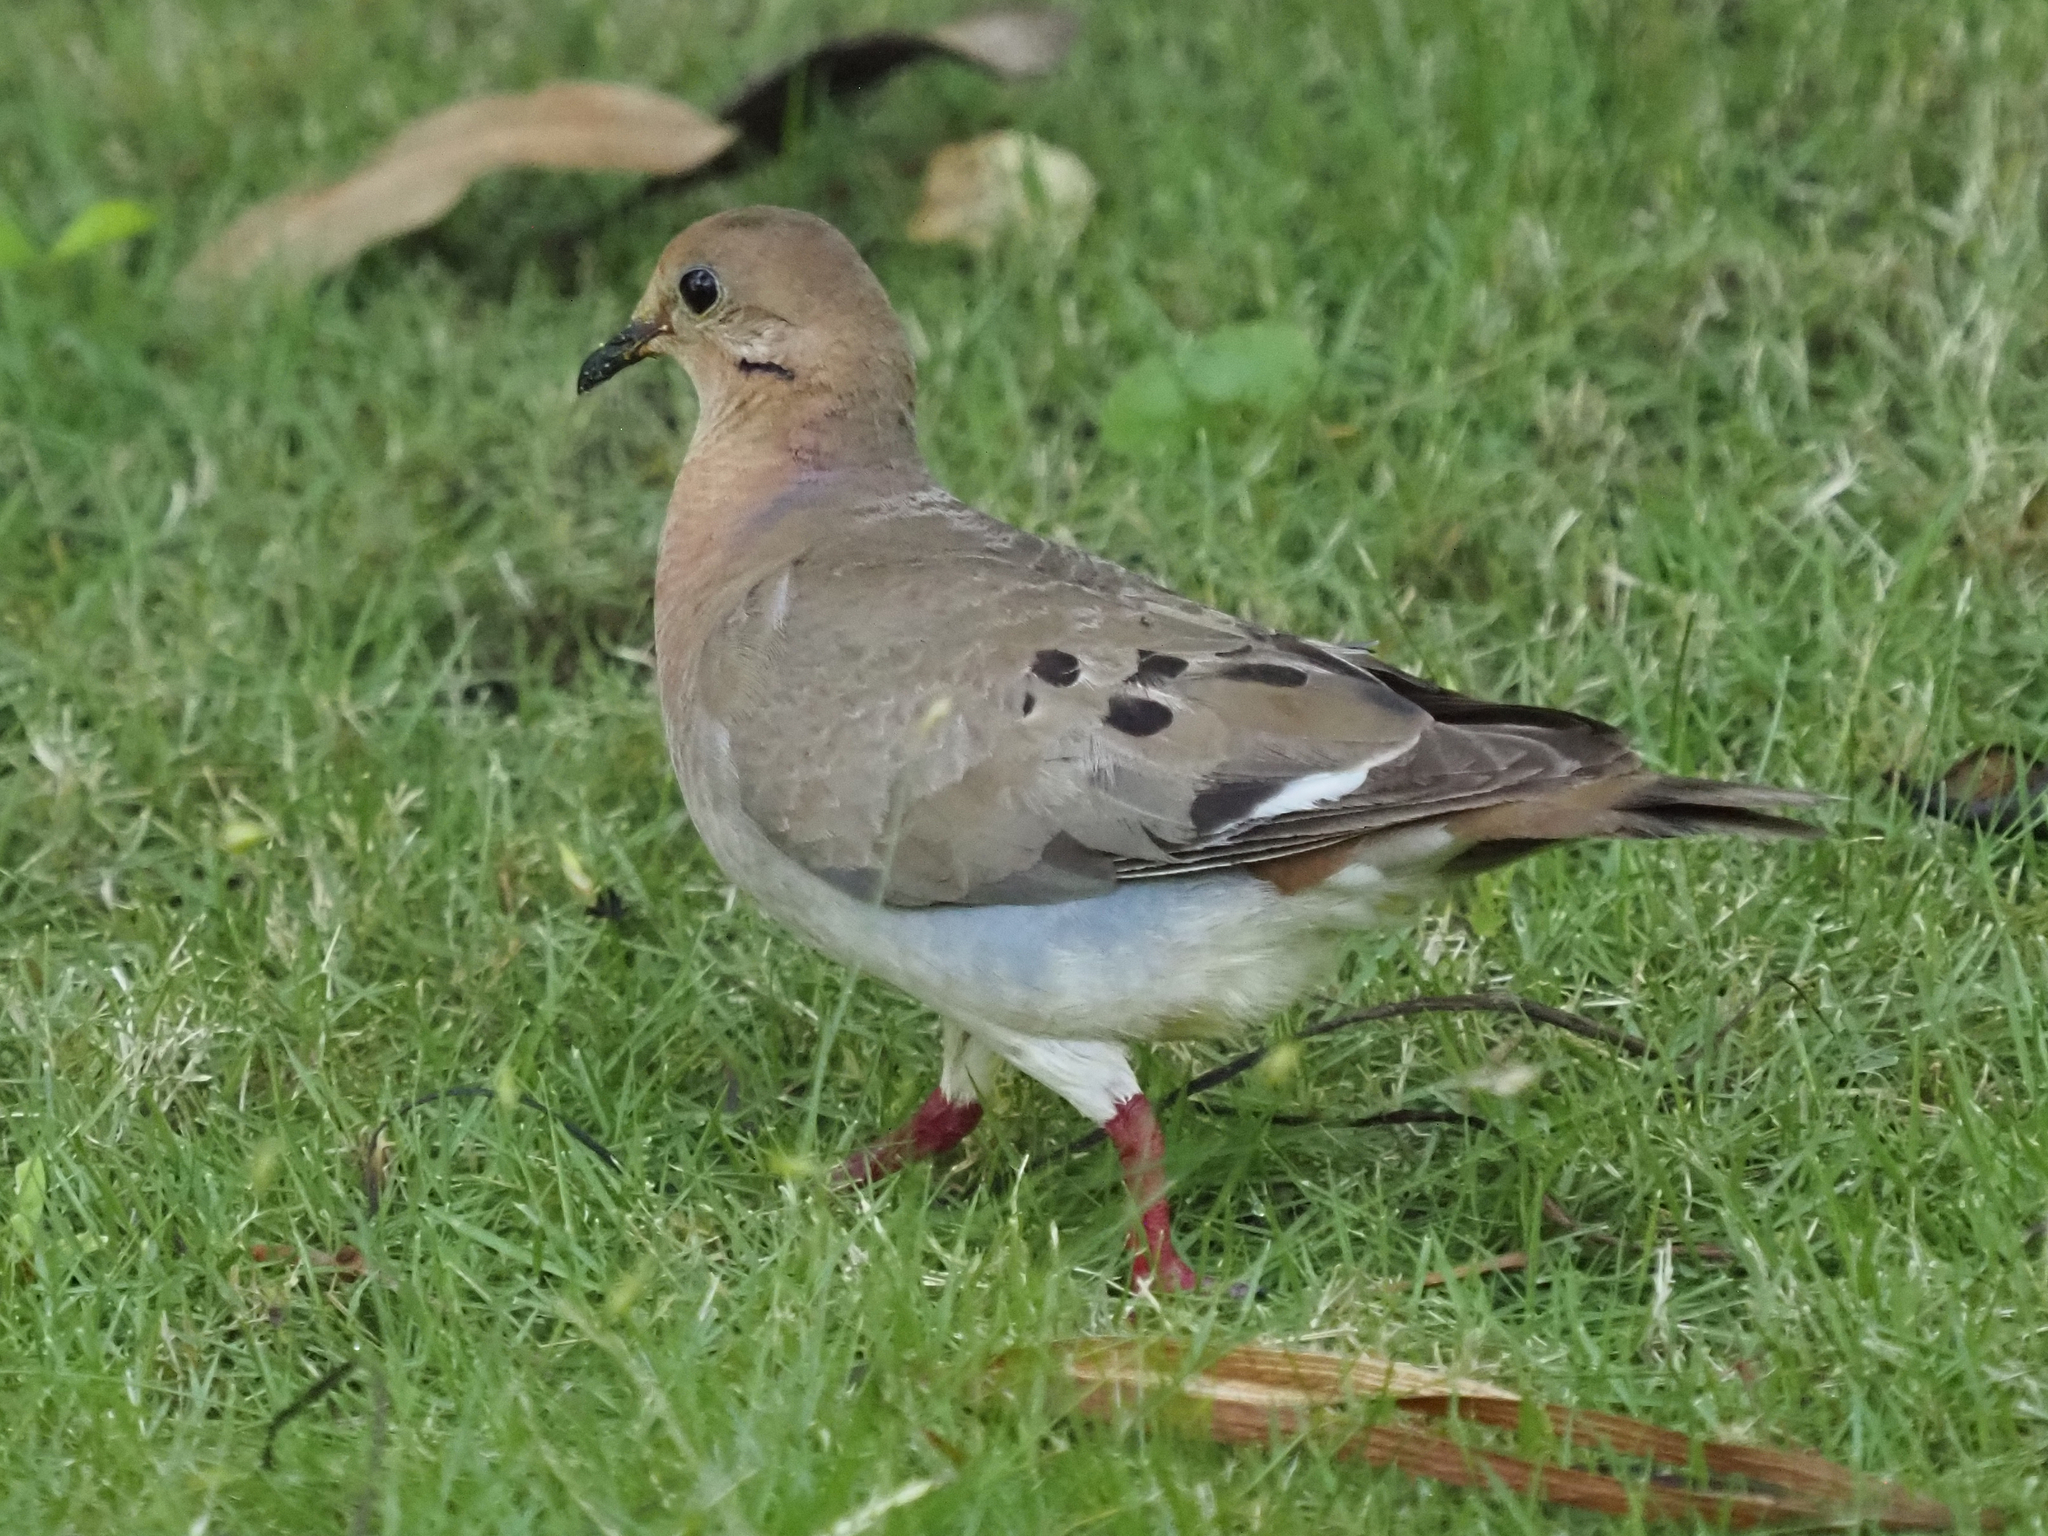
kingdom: Animalia
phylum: Chordata
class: Aves
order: Columbiformes
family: Columbidae
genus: Zenaida
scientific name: Zenaida aurita
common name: Zenaida dove
